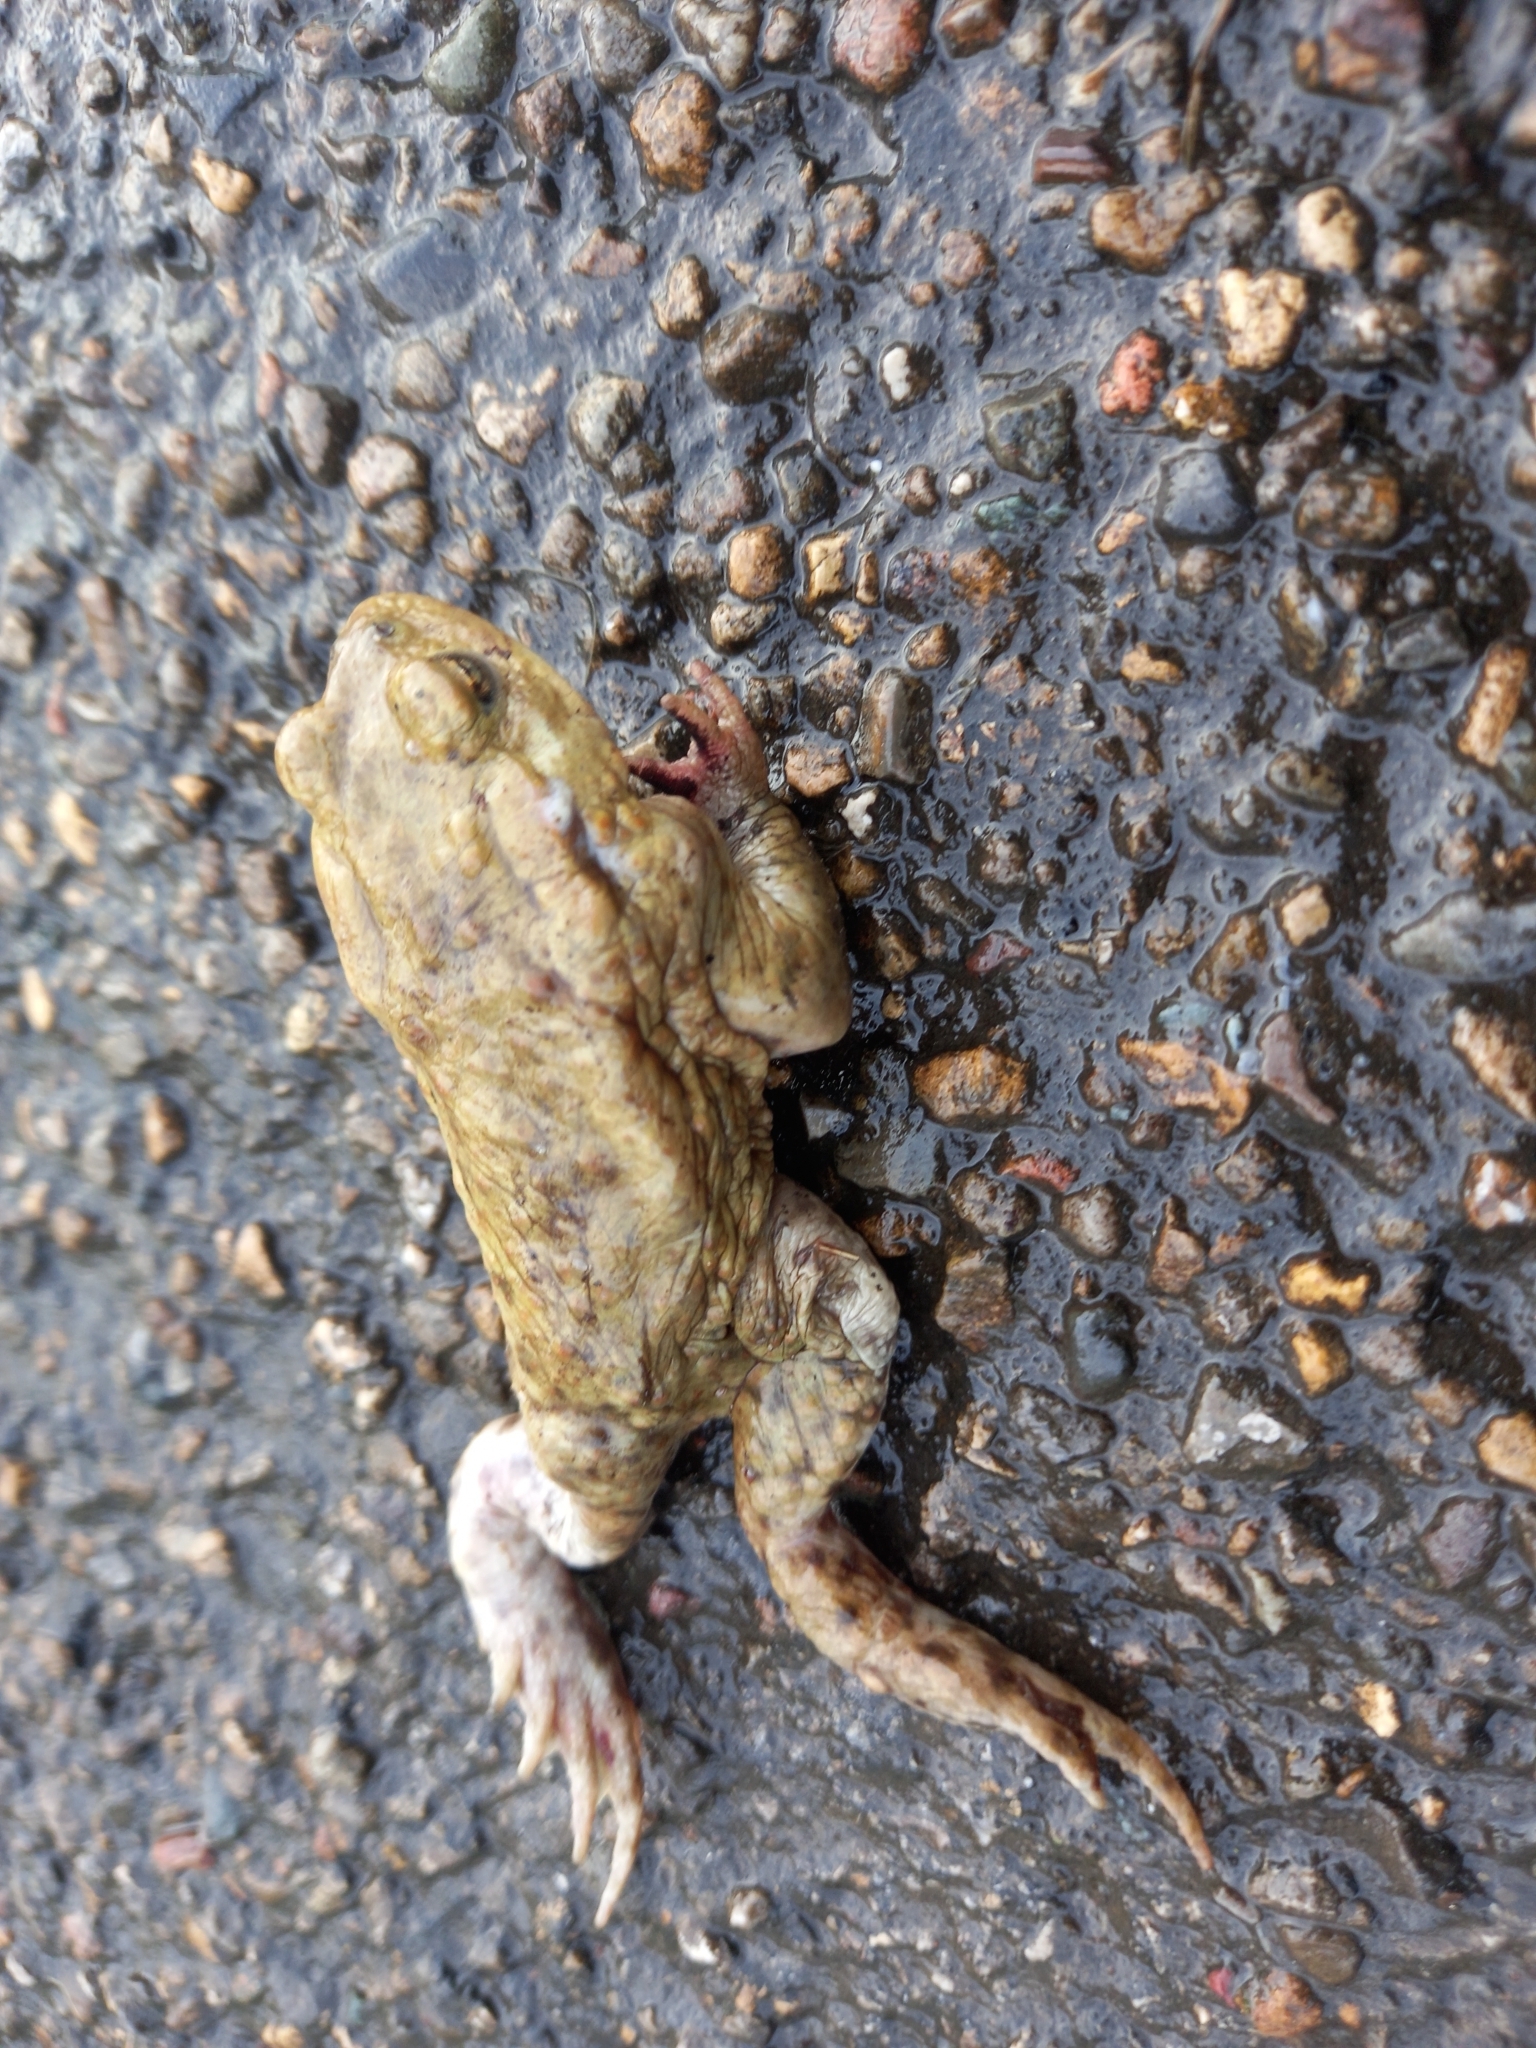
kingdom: Animalia
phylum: Chordata
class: Amphibia
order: Anura
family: Bufonidae
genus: Bufo
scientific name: Bufo bufo
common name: Common toad
